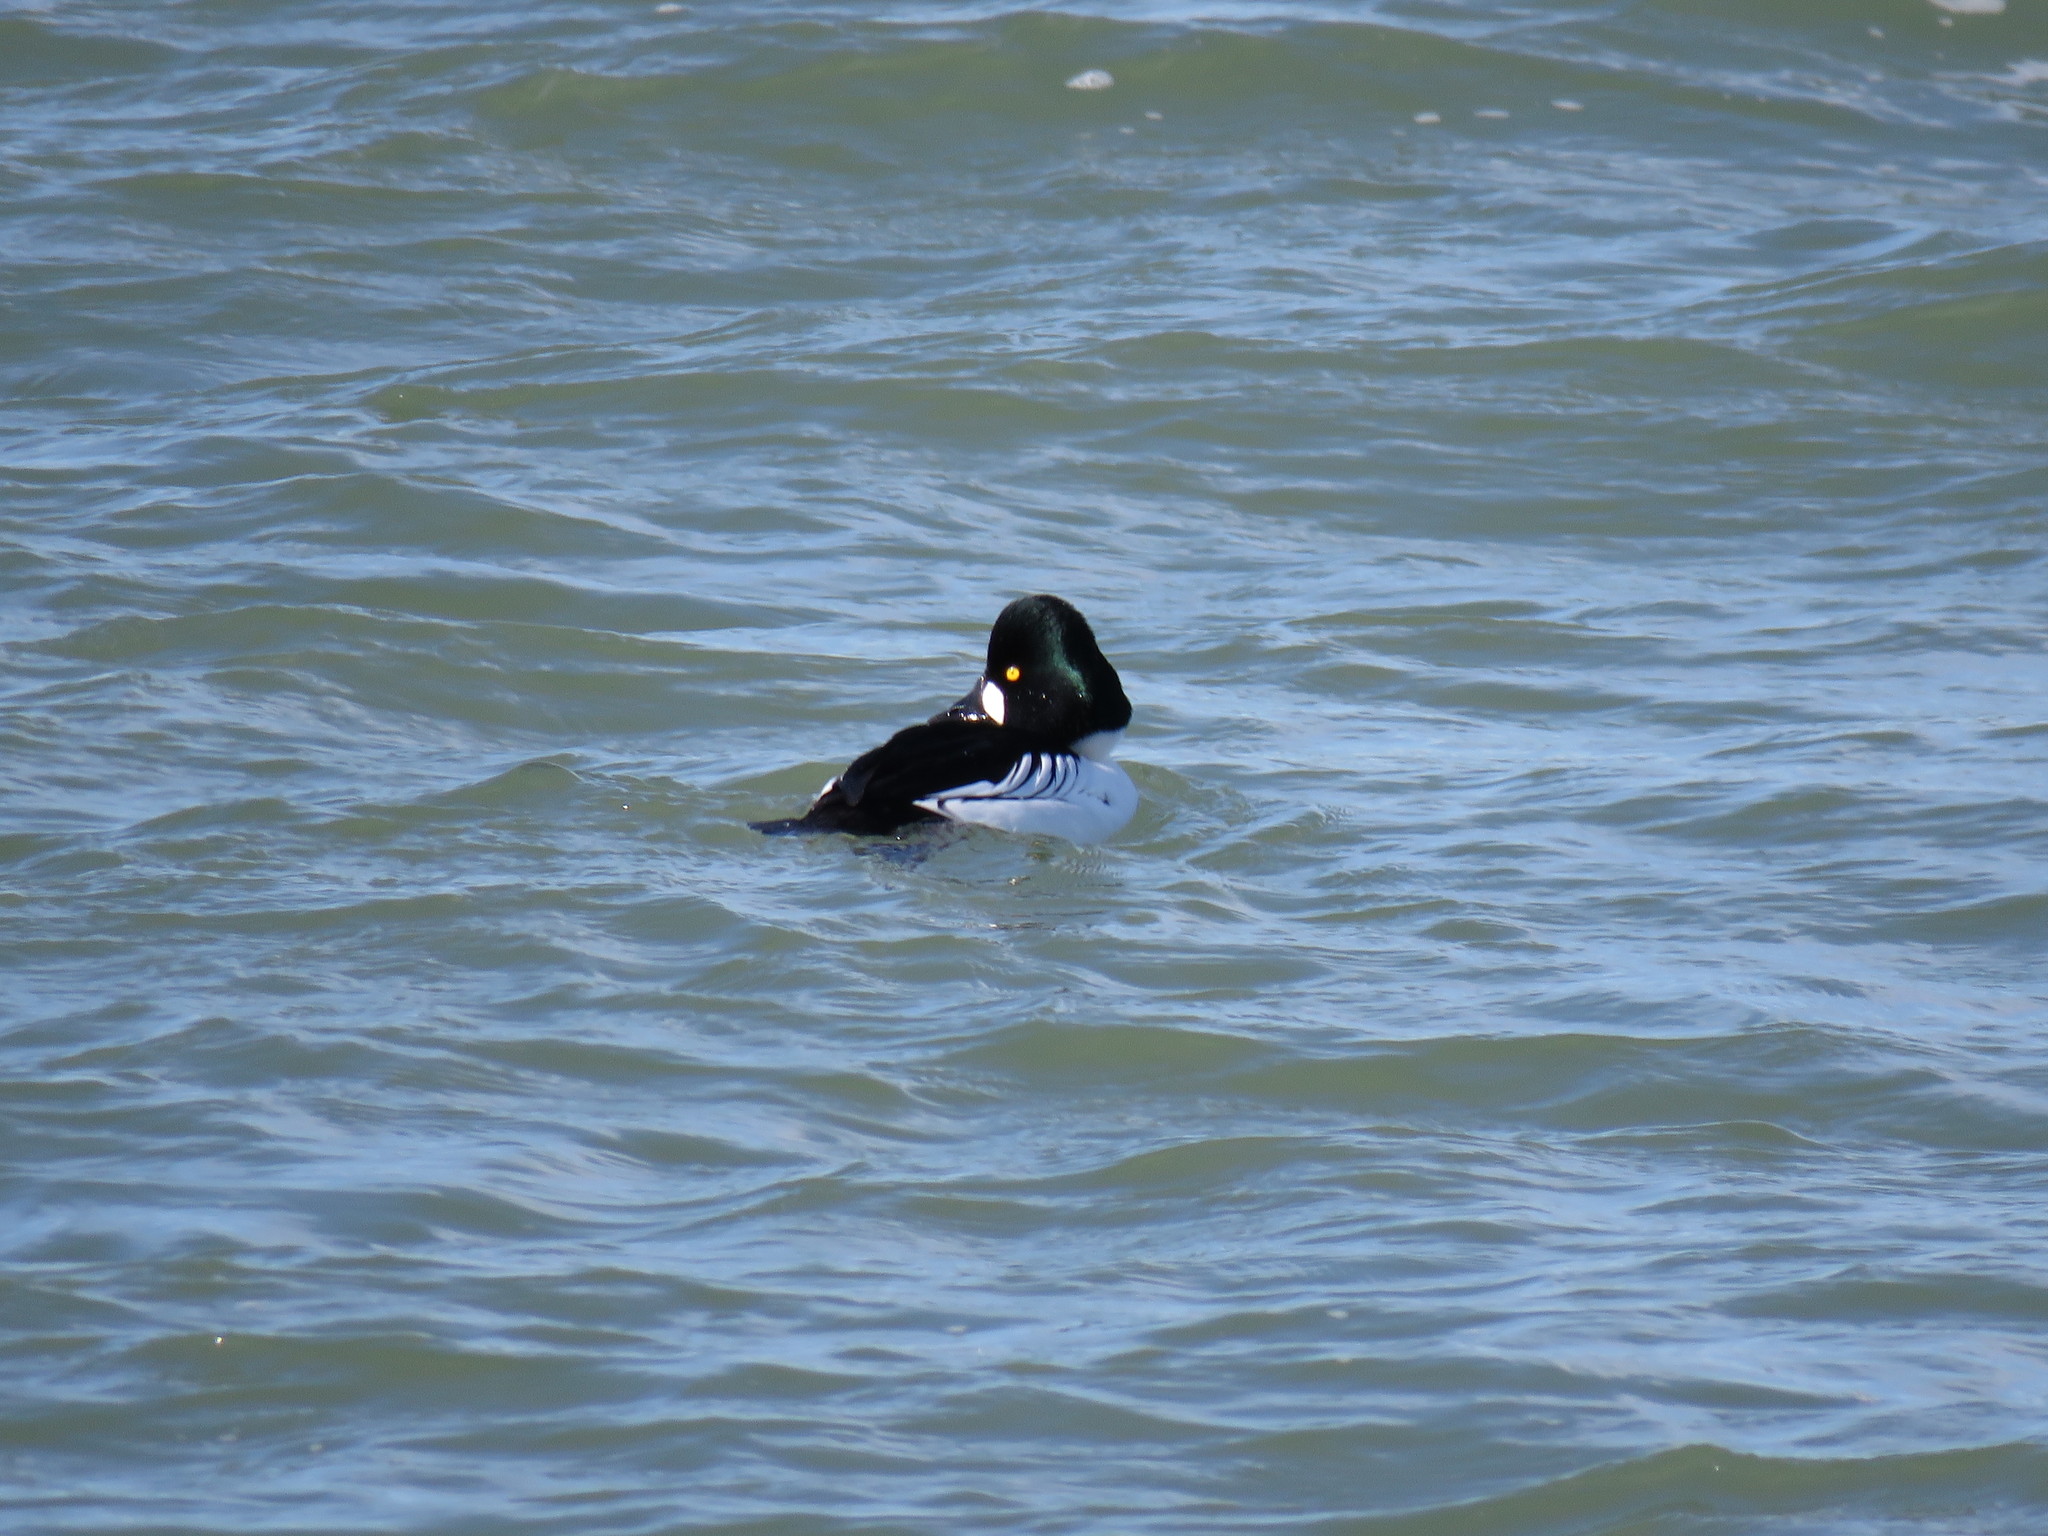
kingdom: Animalia
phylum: Chordata
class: Aves
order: Anseriformes
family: Anatidae
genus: Bucephala
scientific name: Bucephala clangula
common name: Common goldeneye
